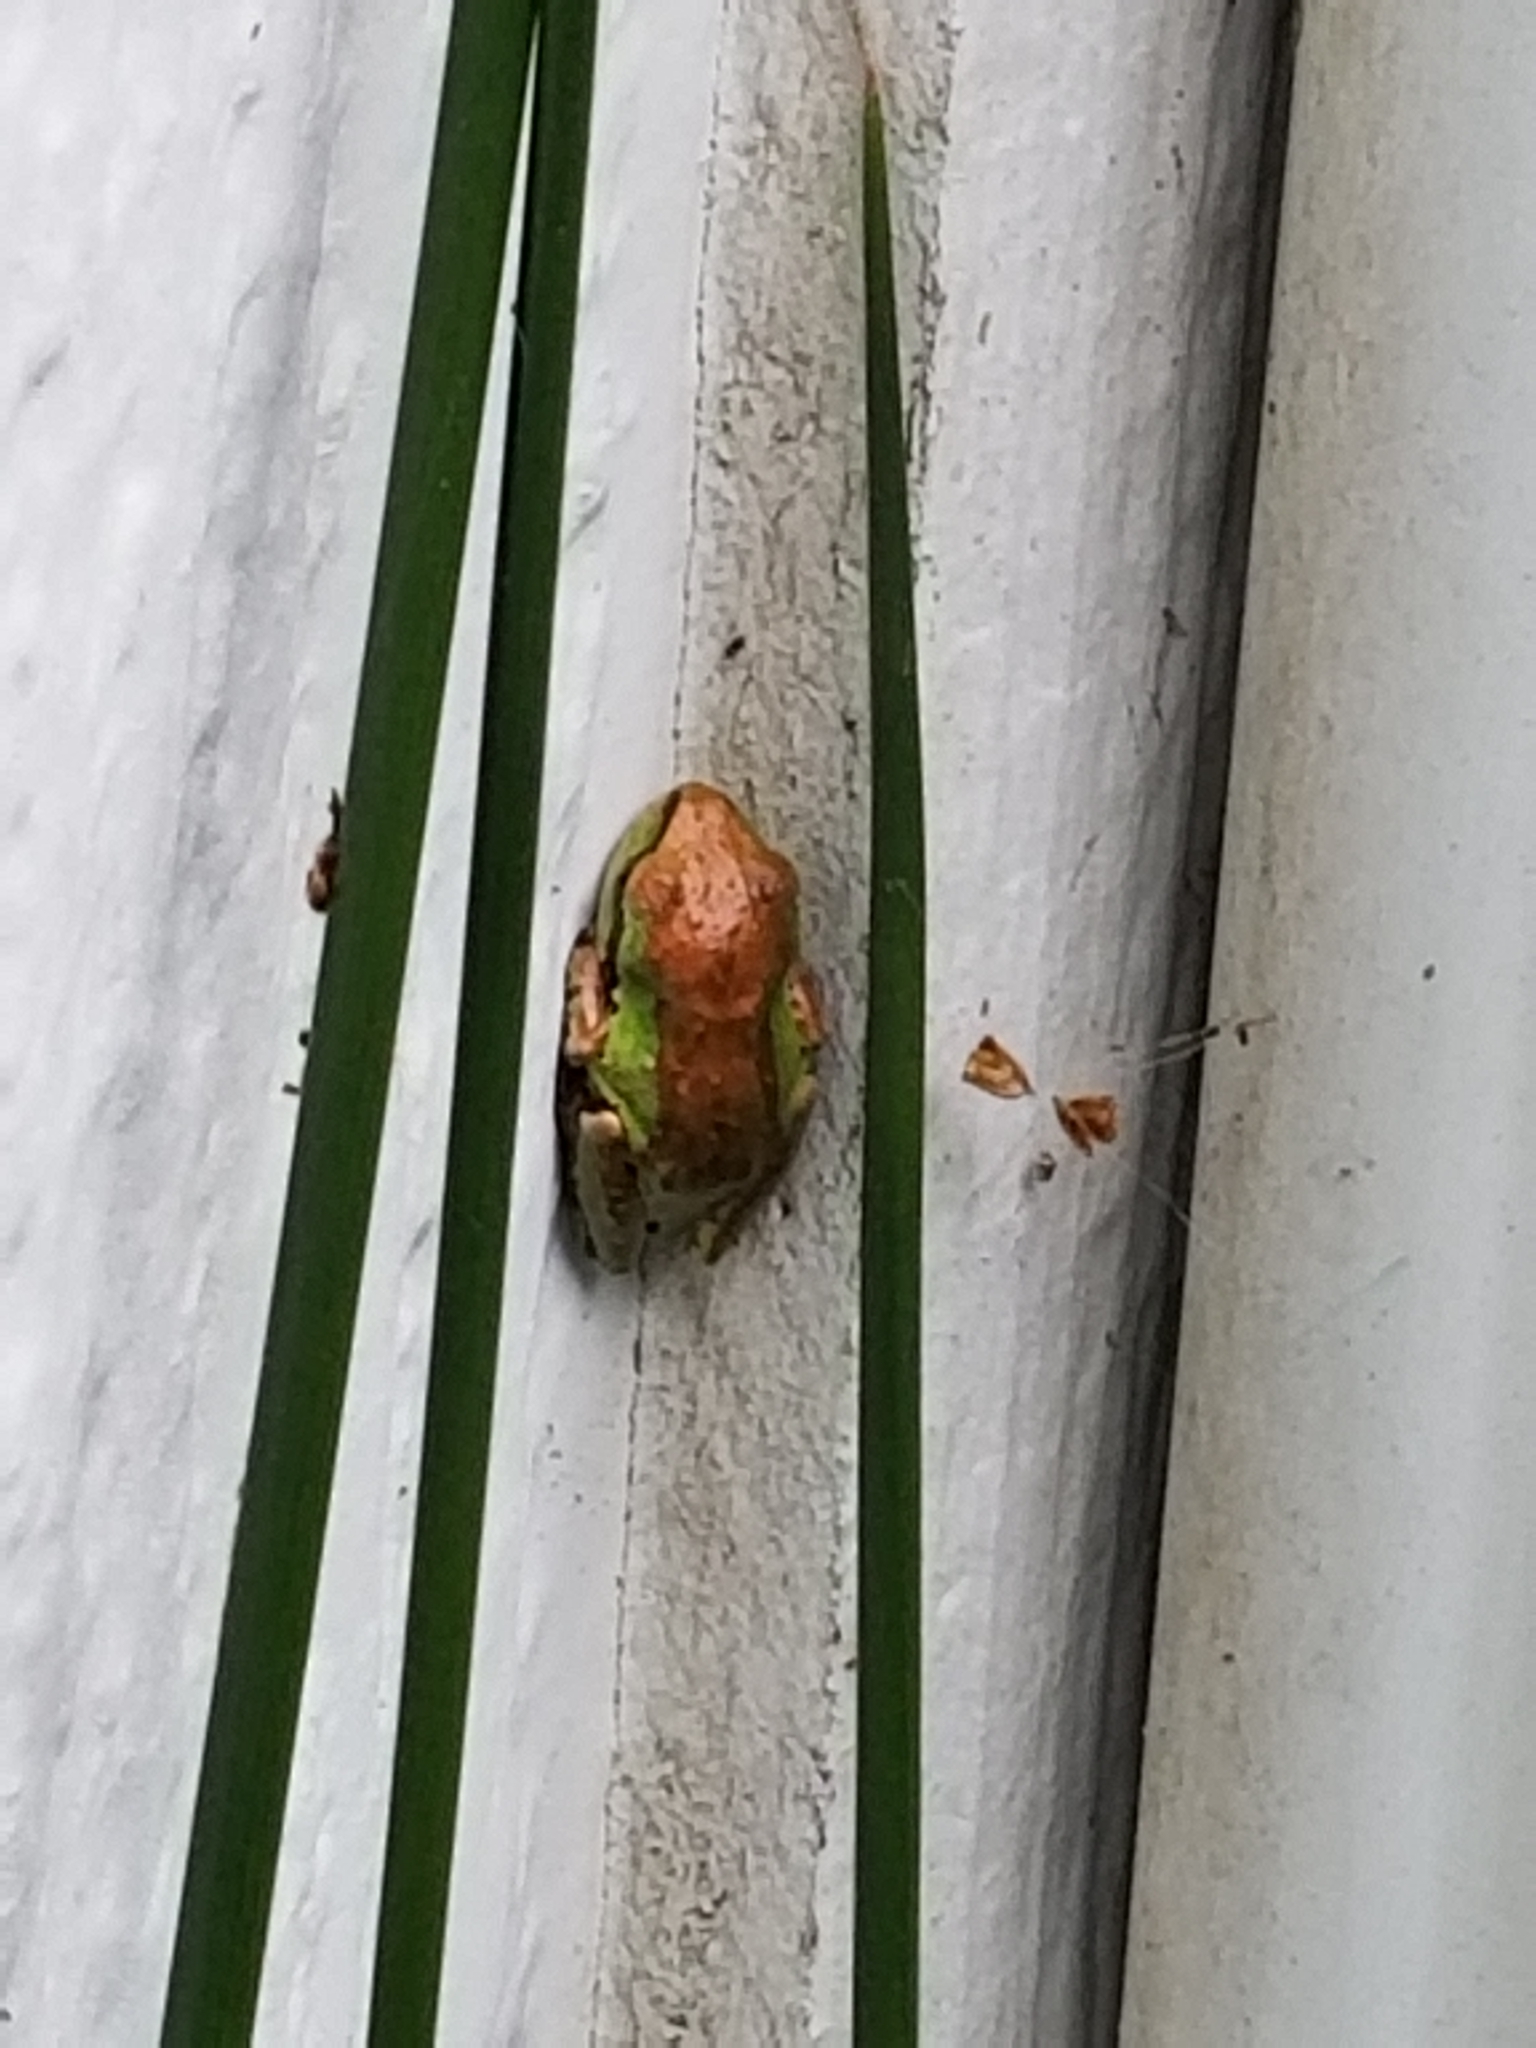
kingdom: Animalia
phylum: Chordata
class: Amphibia
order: Anura
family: Hylidae
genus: Pseudacris
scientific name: Pseudacris regilla
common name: Pacific chorus frog
